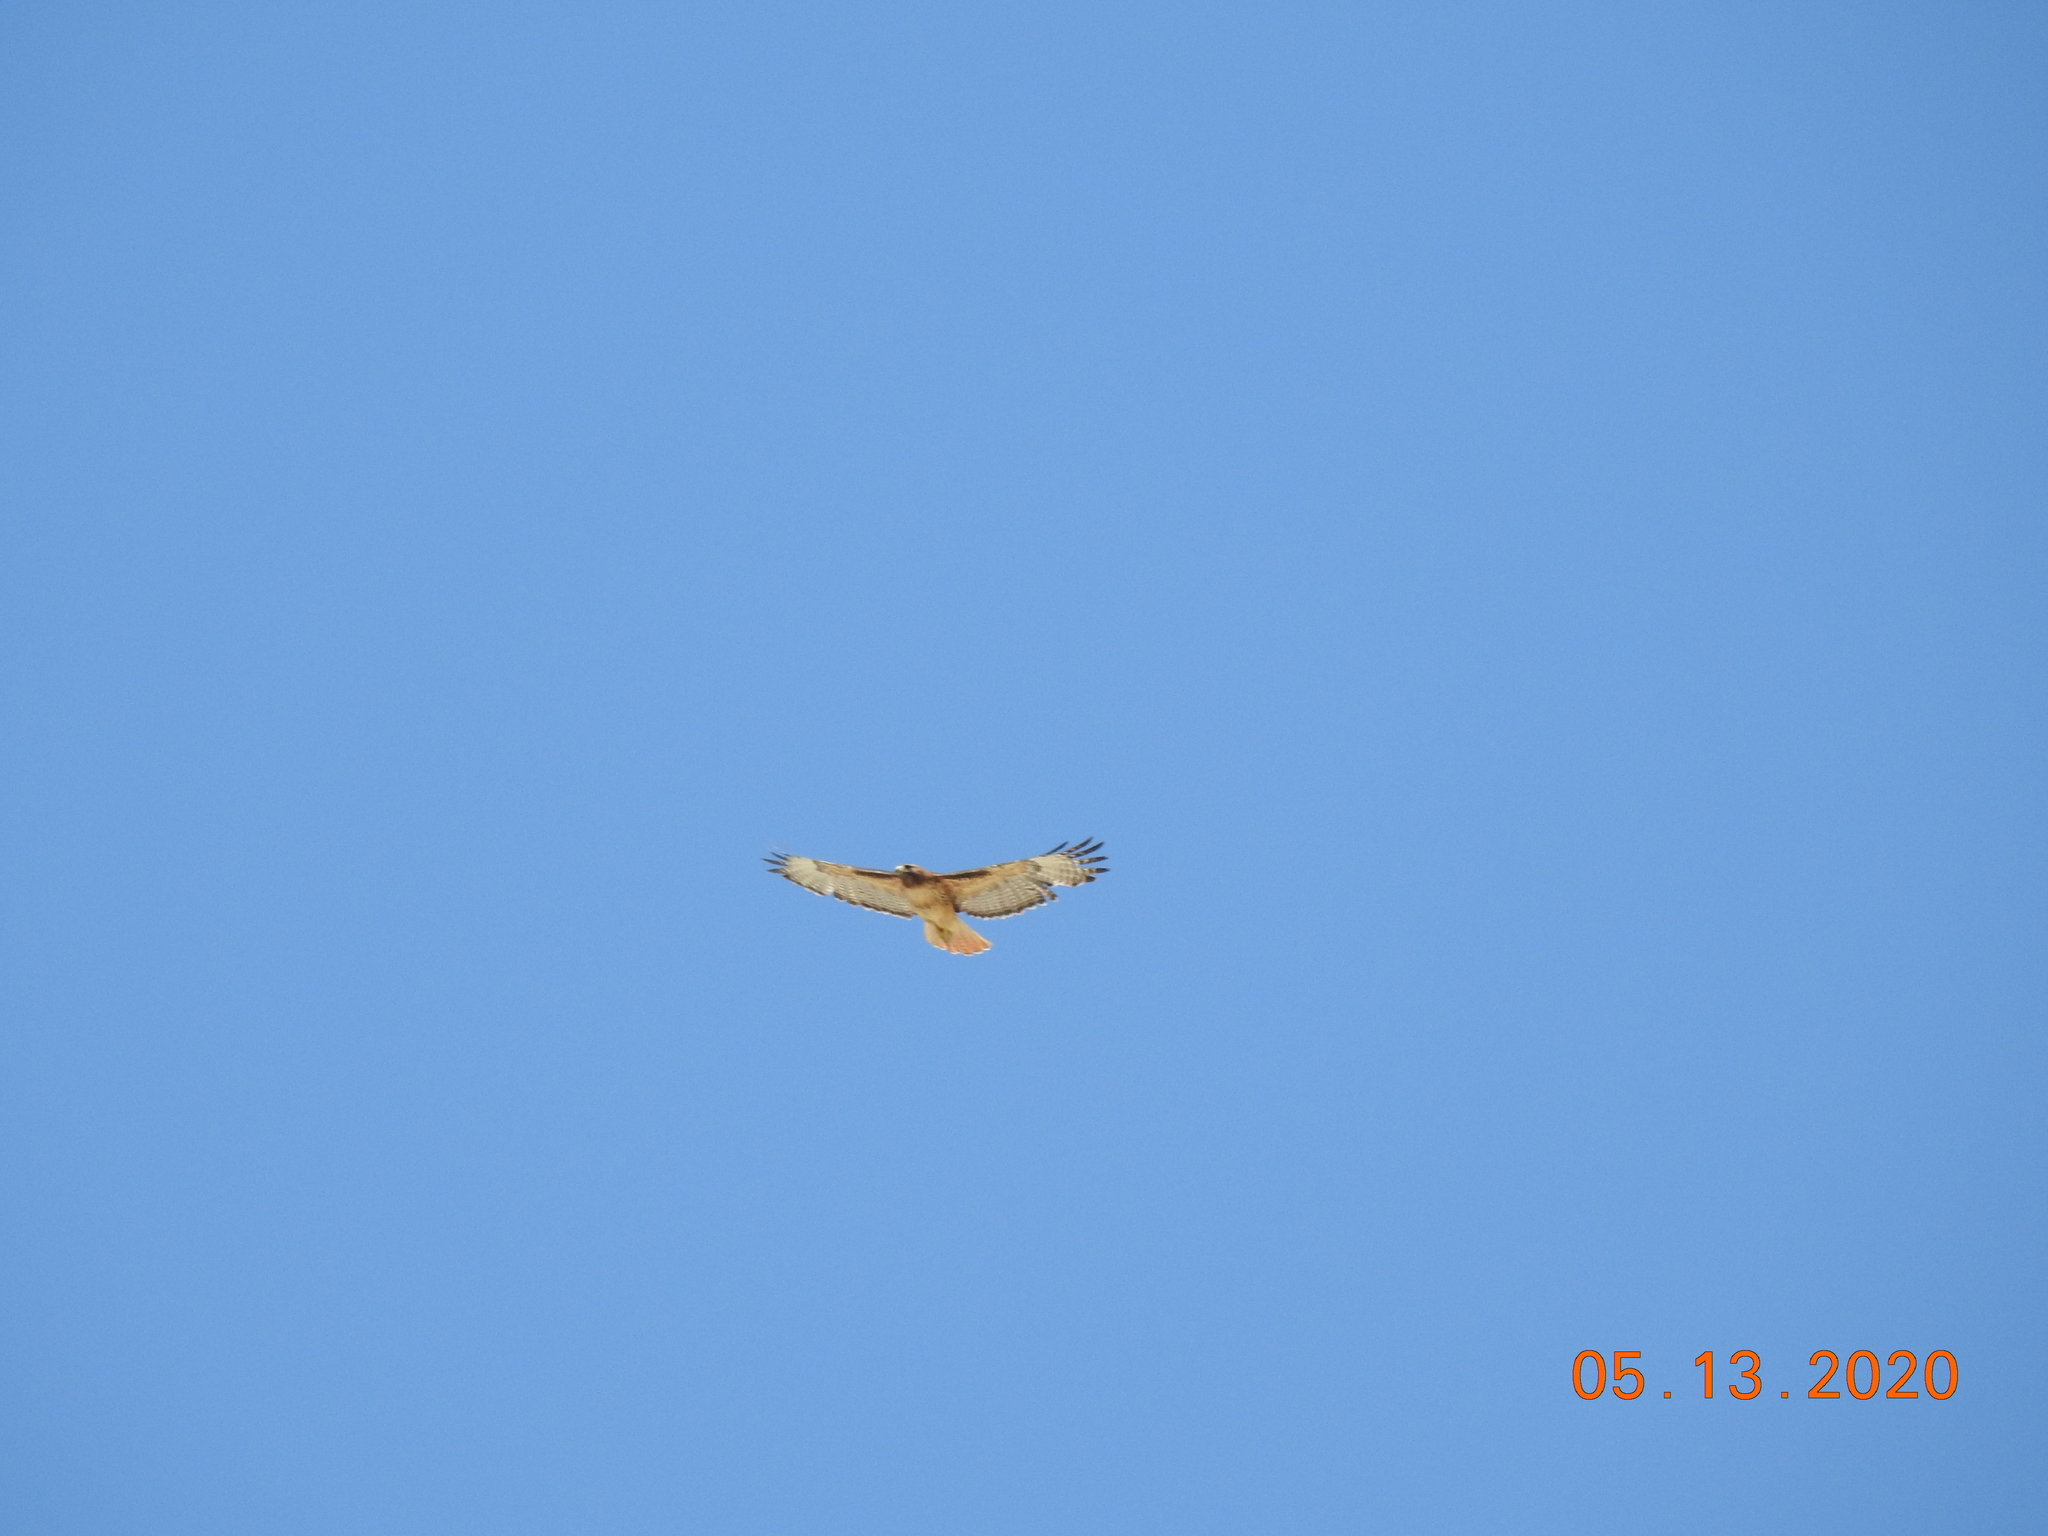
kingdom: Animalia
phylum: Chordata
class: Aves
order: Accipitriformes
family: Accipitridae
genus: Buteo
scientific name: Buteo jamaicensis
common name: Red-tailed hawk
